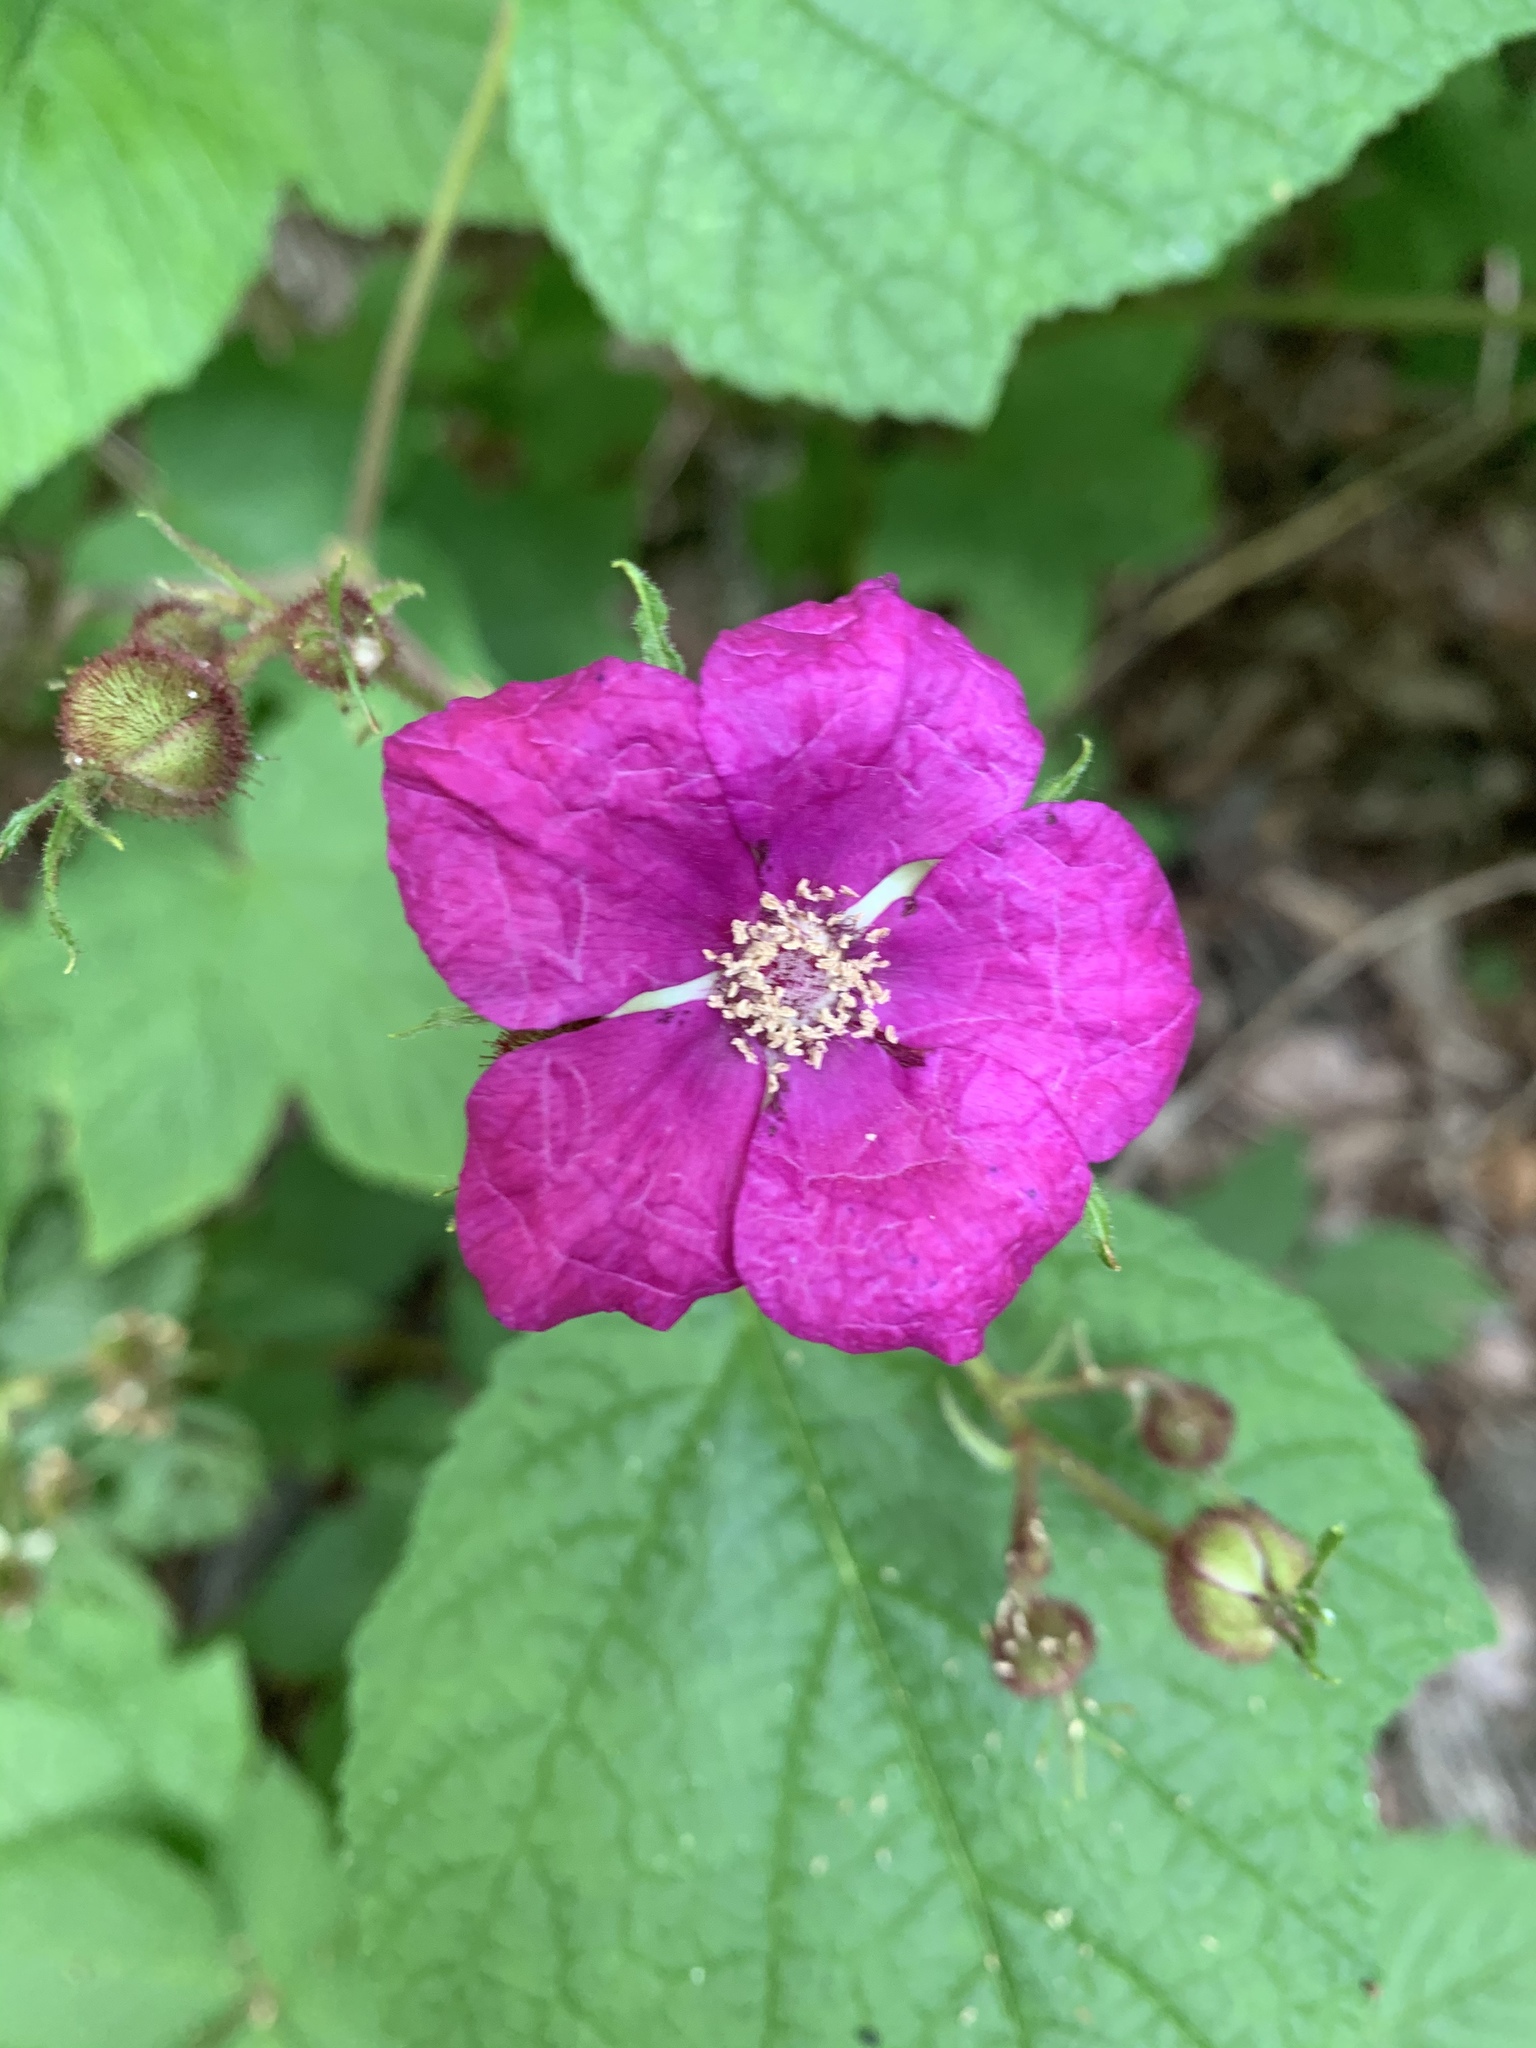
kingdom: Plantae
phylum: Tracheophyta
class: Magnoliopsida
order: Rosales
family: Rosaceae
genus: Rubus
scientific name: Rubus odoratus
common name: Purple-flowered raspberry
